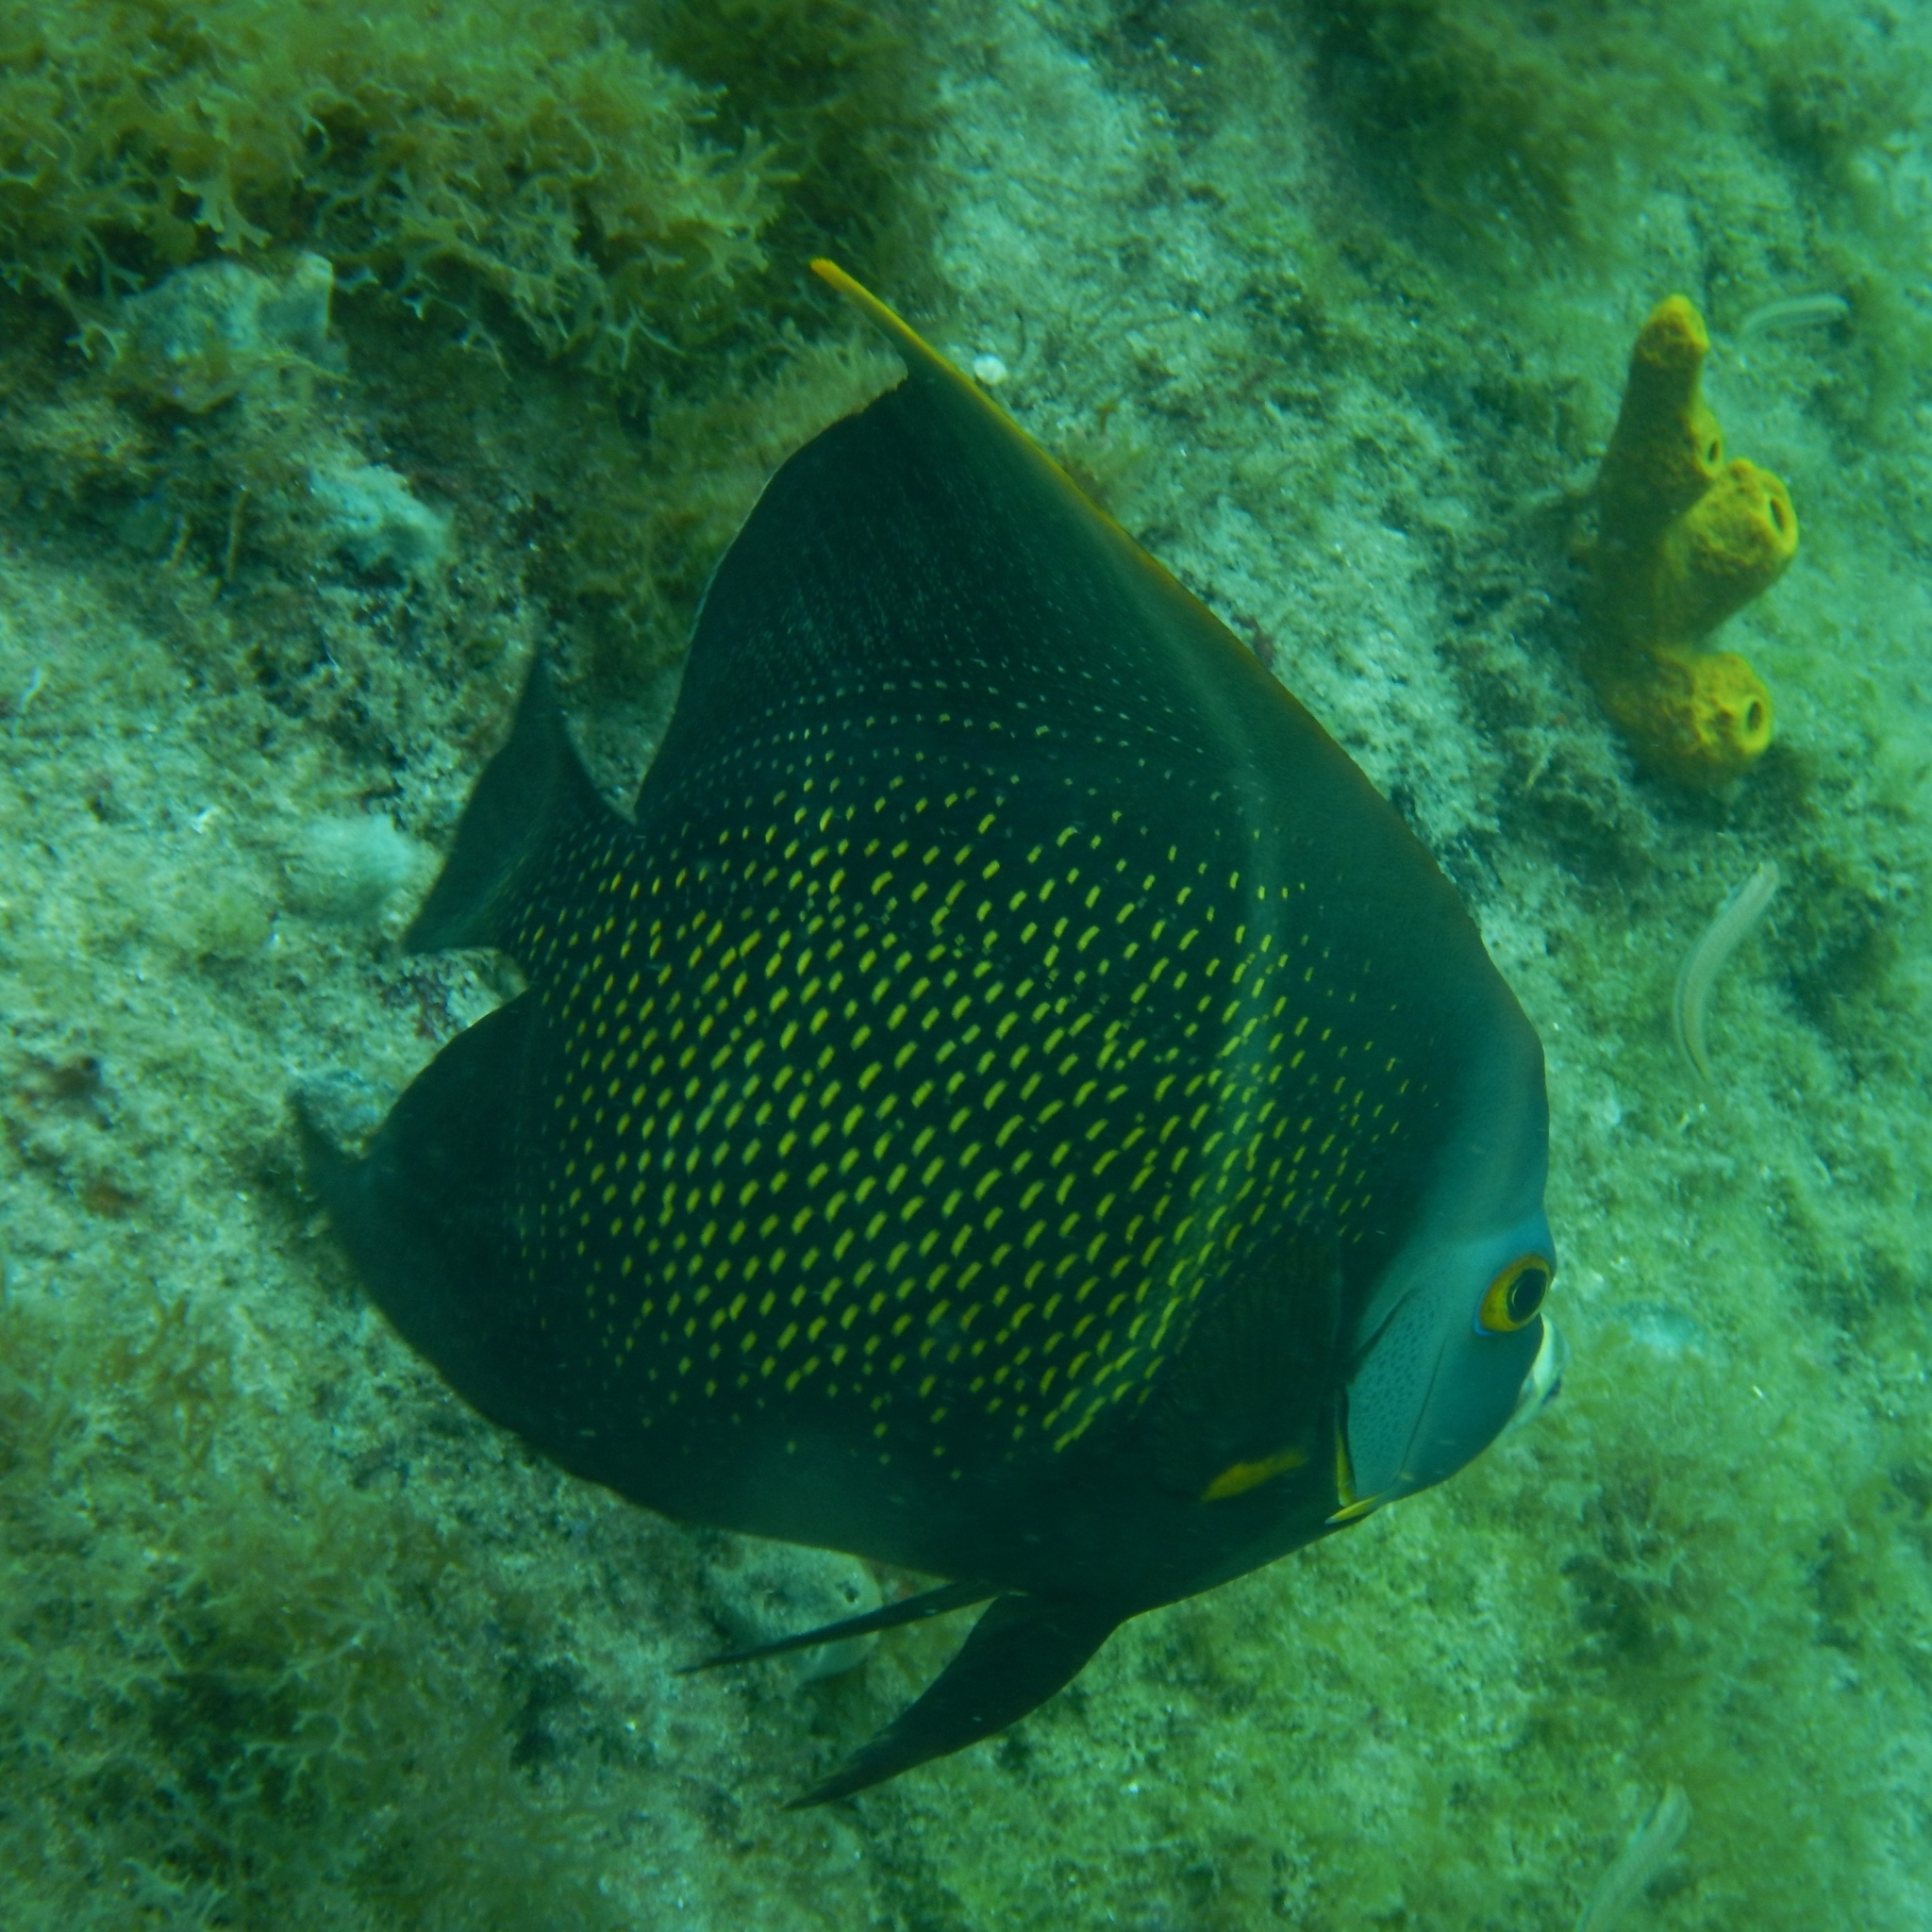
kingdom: Animalia
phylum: Chordata
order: Perciformes
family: Pomacanthidae
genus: Pomacanthus
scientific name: Pomacanthus paru
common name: French angelfish
